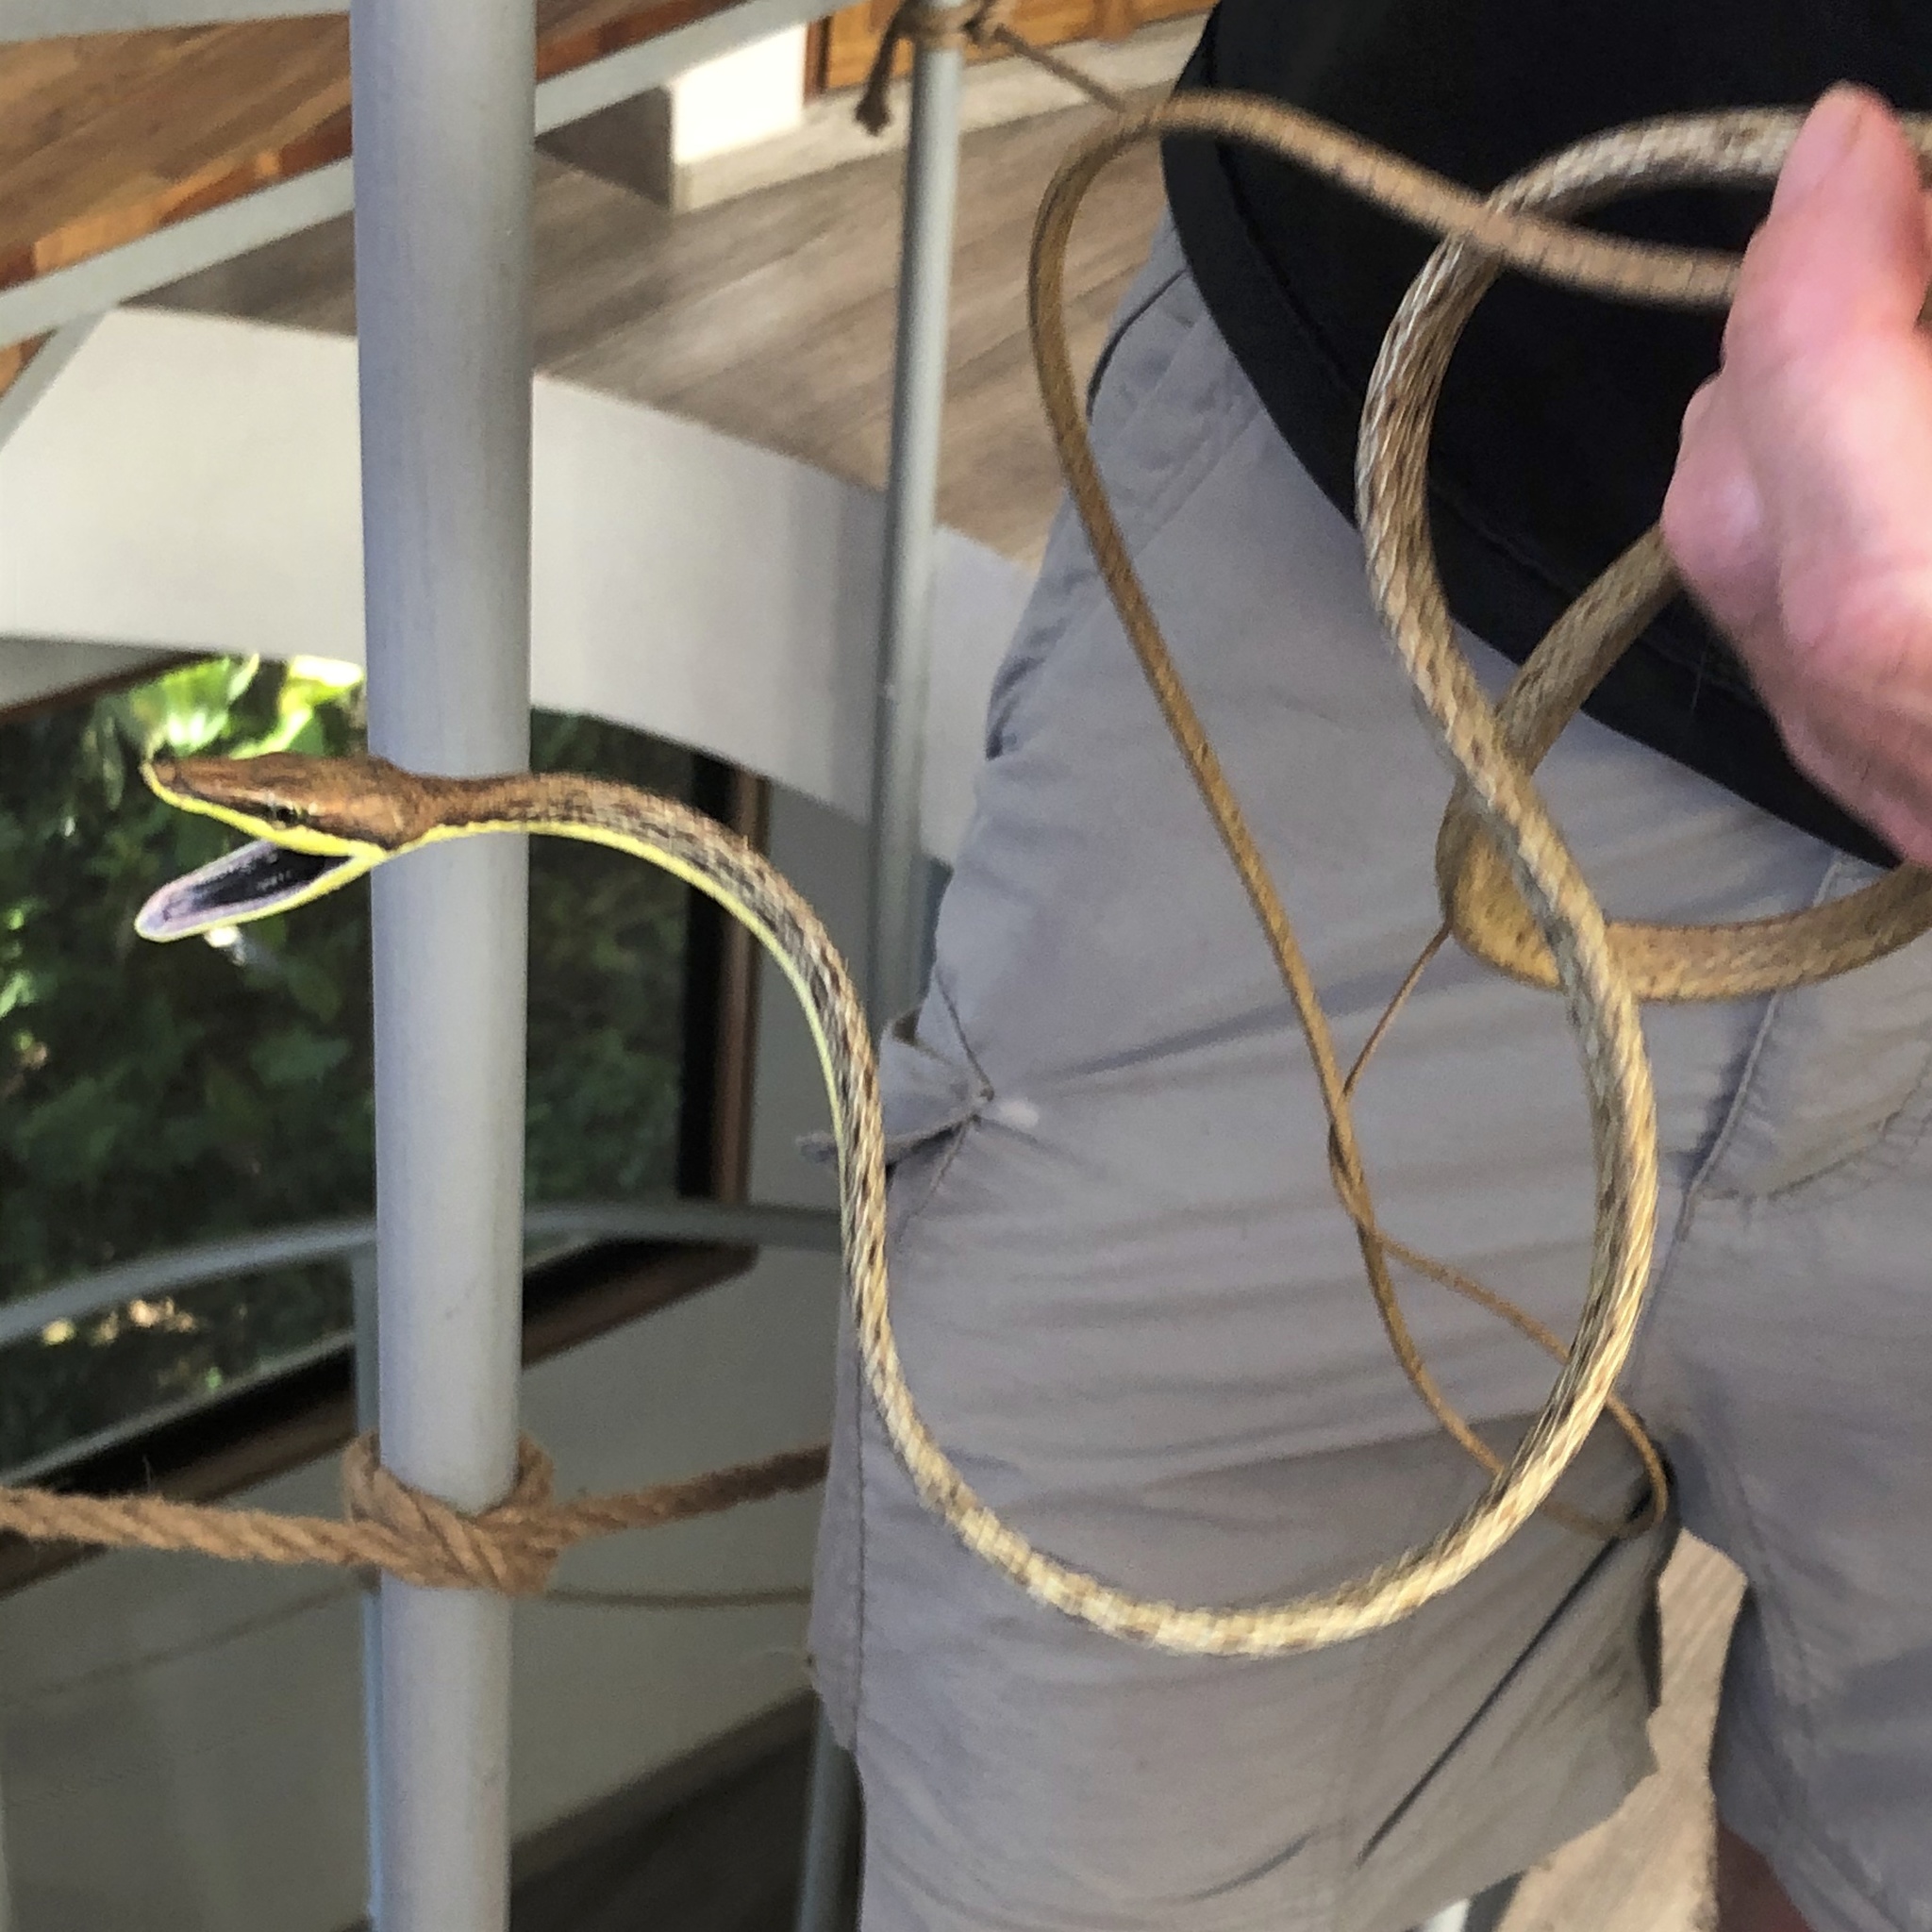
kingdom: Animalia
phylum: Chordata
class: Squamata
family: Colubridae
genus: Oxybelis
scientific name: Oxybelis koehleri
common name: Köhler’s vine snake
